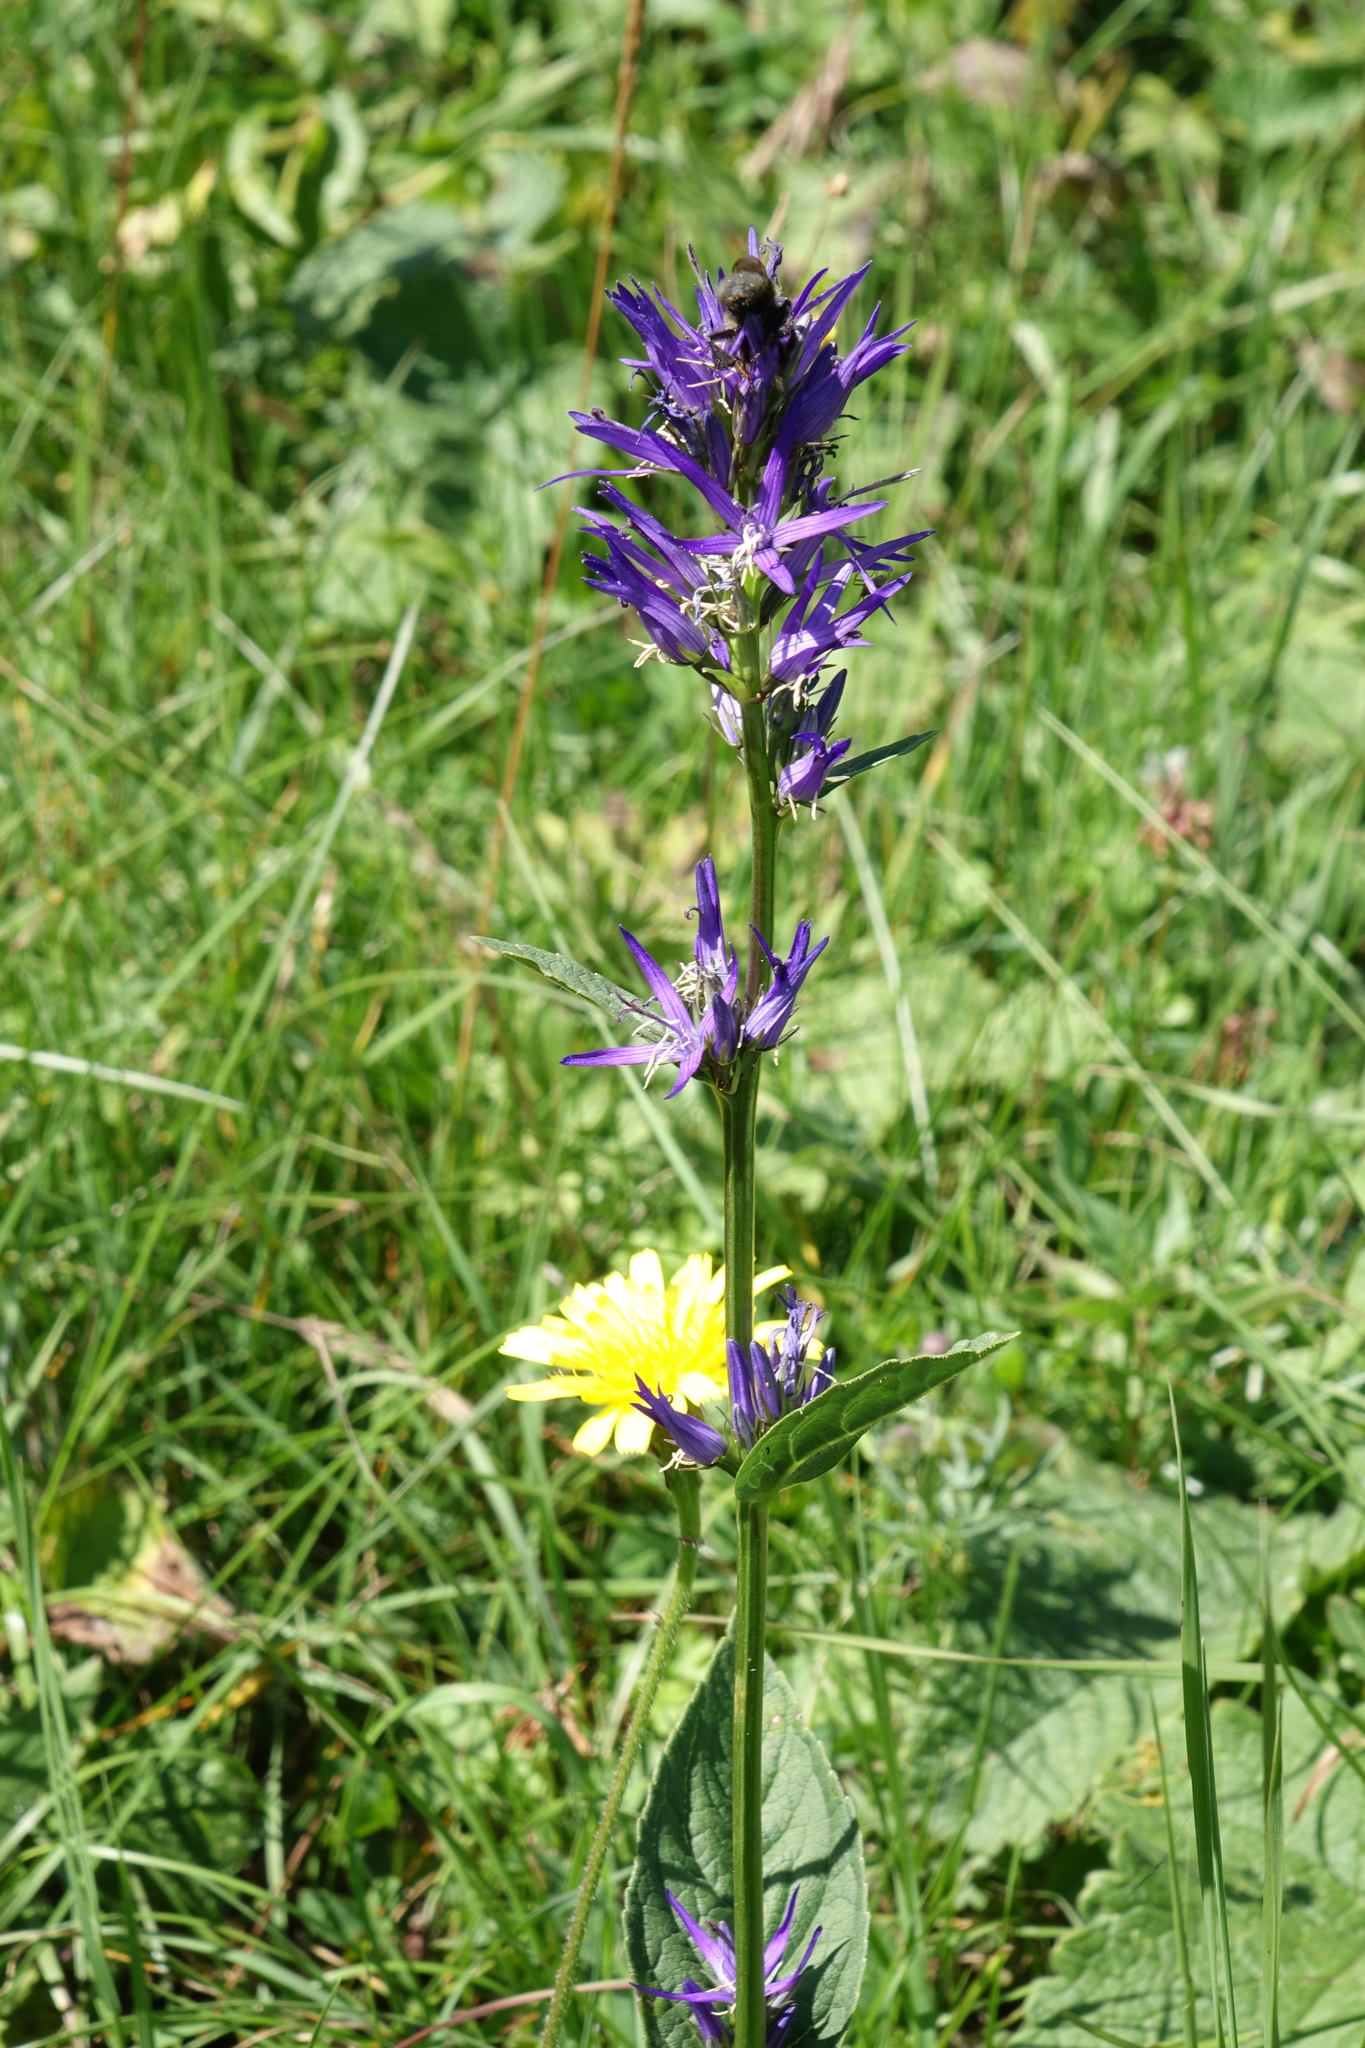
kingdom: Plantae
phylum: Tracheophyta
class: Magnoliopsida
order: Asterales
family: Campanulaceae
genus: Asyneuma
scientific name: Asyneuma campanuloides
